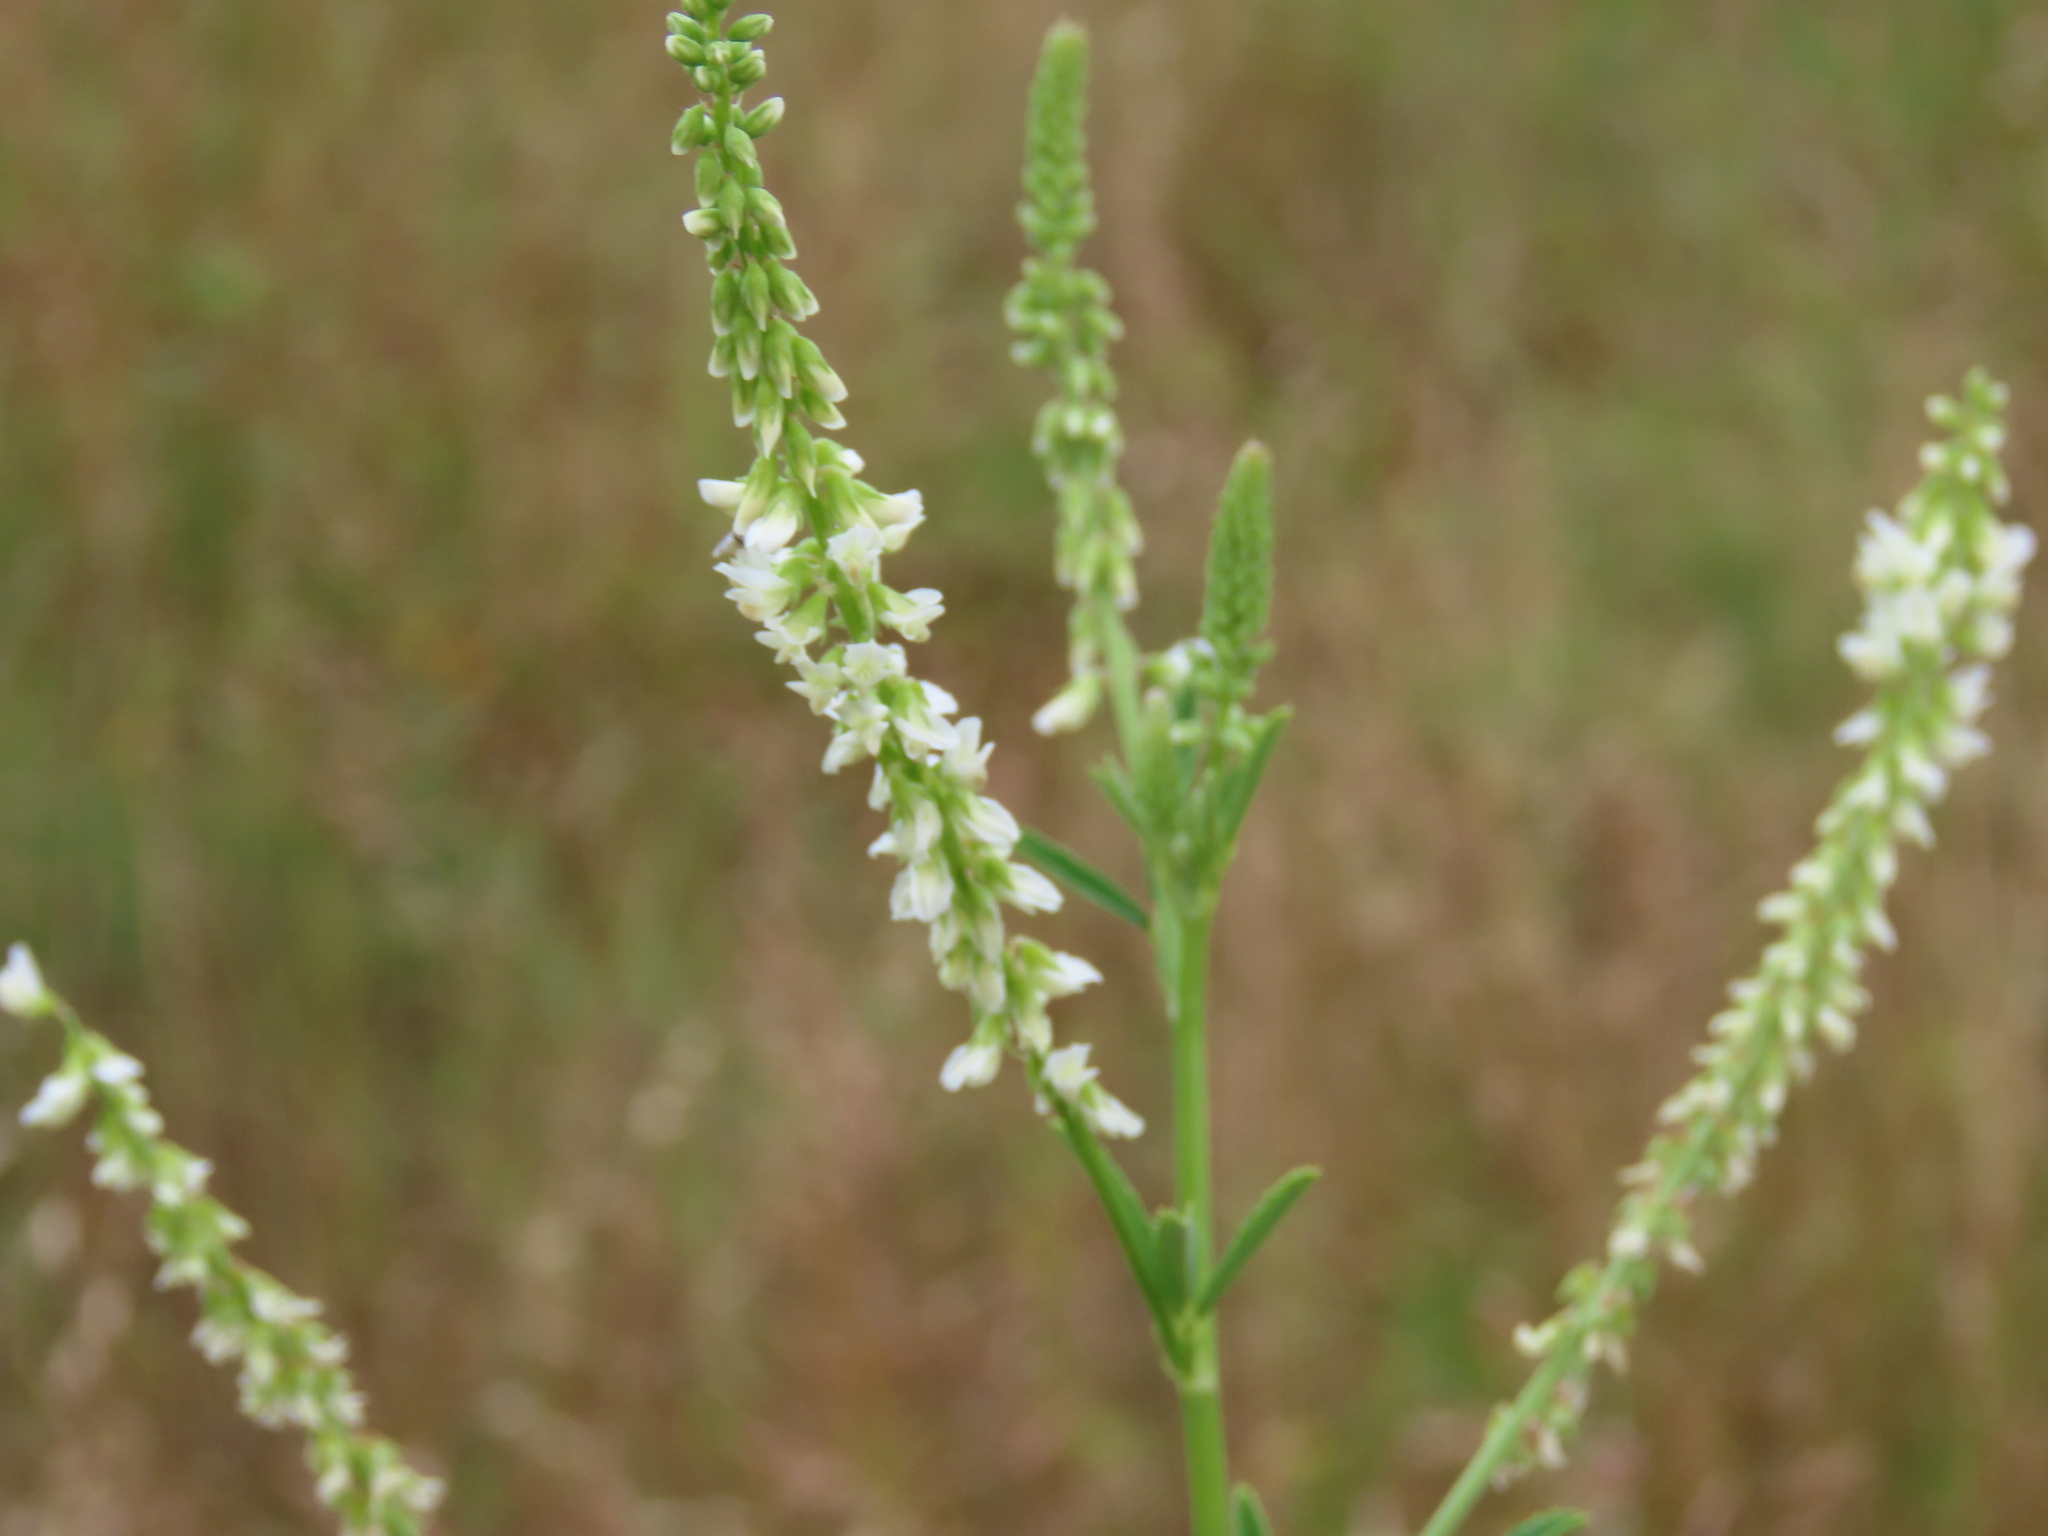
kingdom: Plantae
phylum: Tracheophyta
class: Magnoliopsida
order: Fabales
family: Fabaceae
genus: Melilotus
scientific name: Melilotus albus
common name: White melilot
